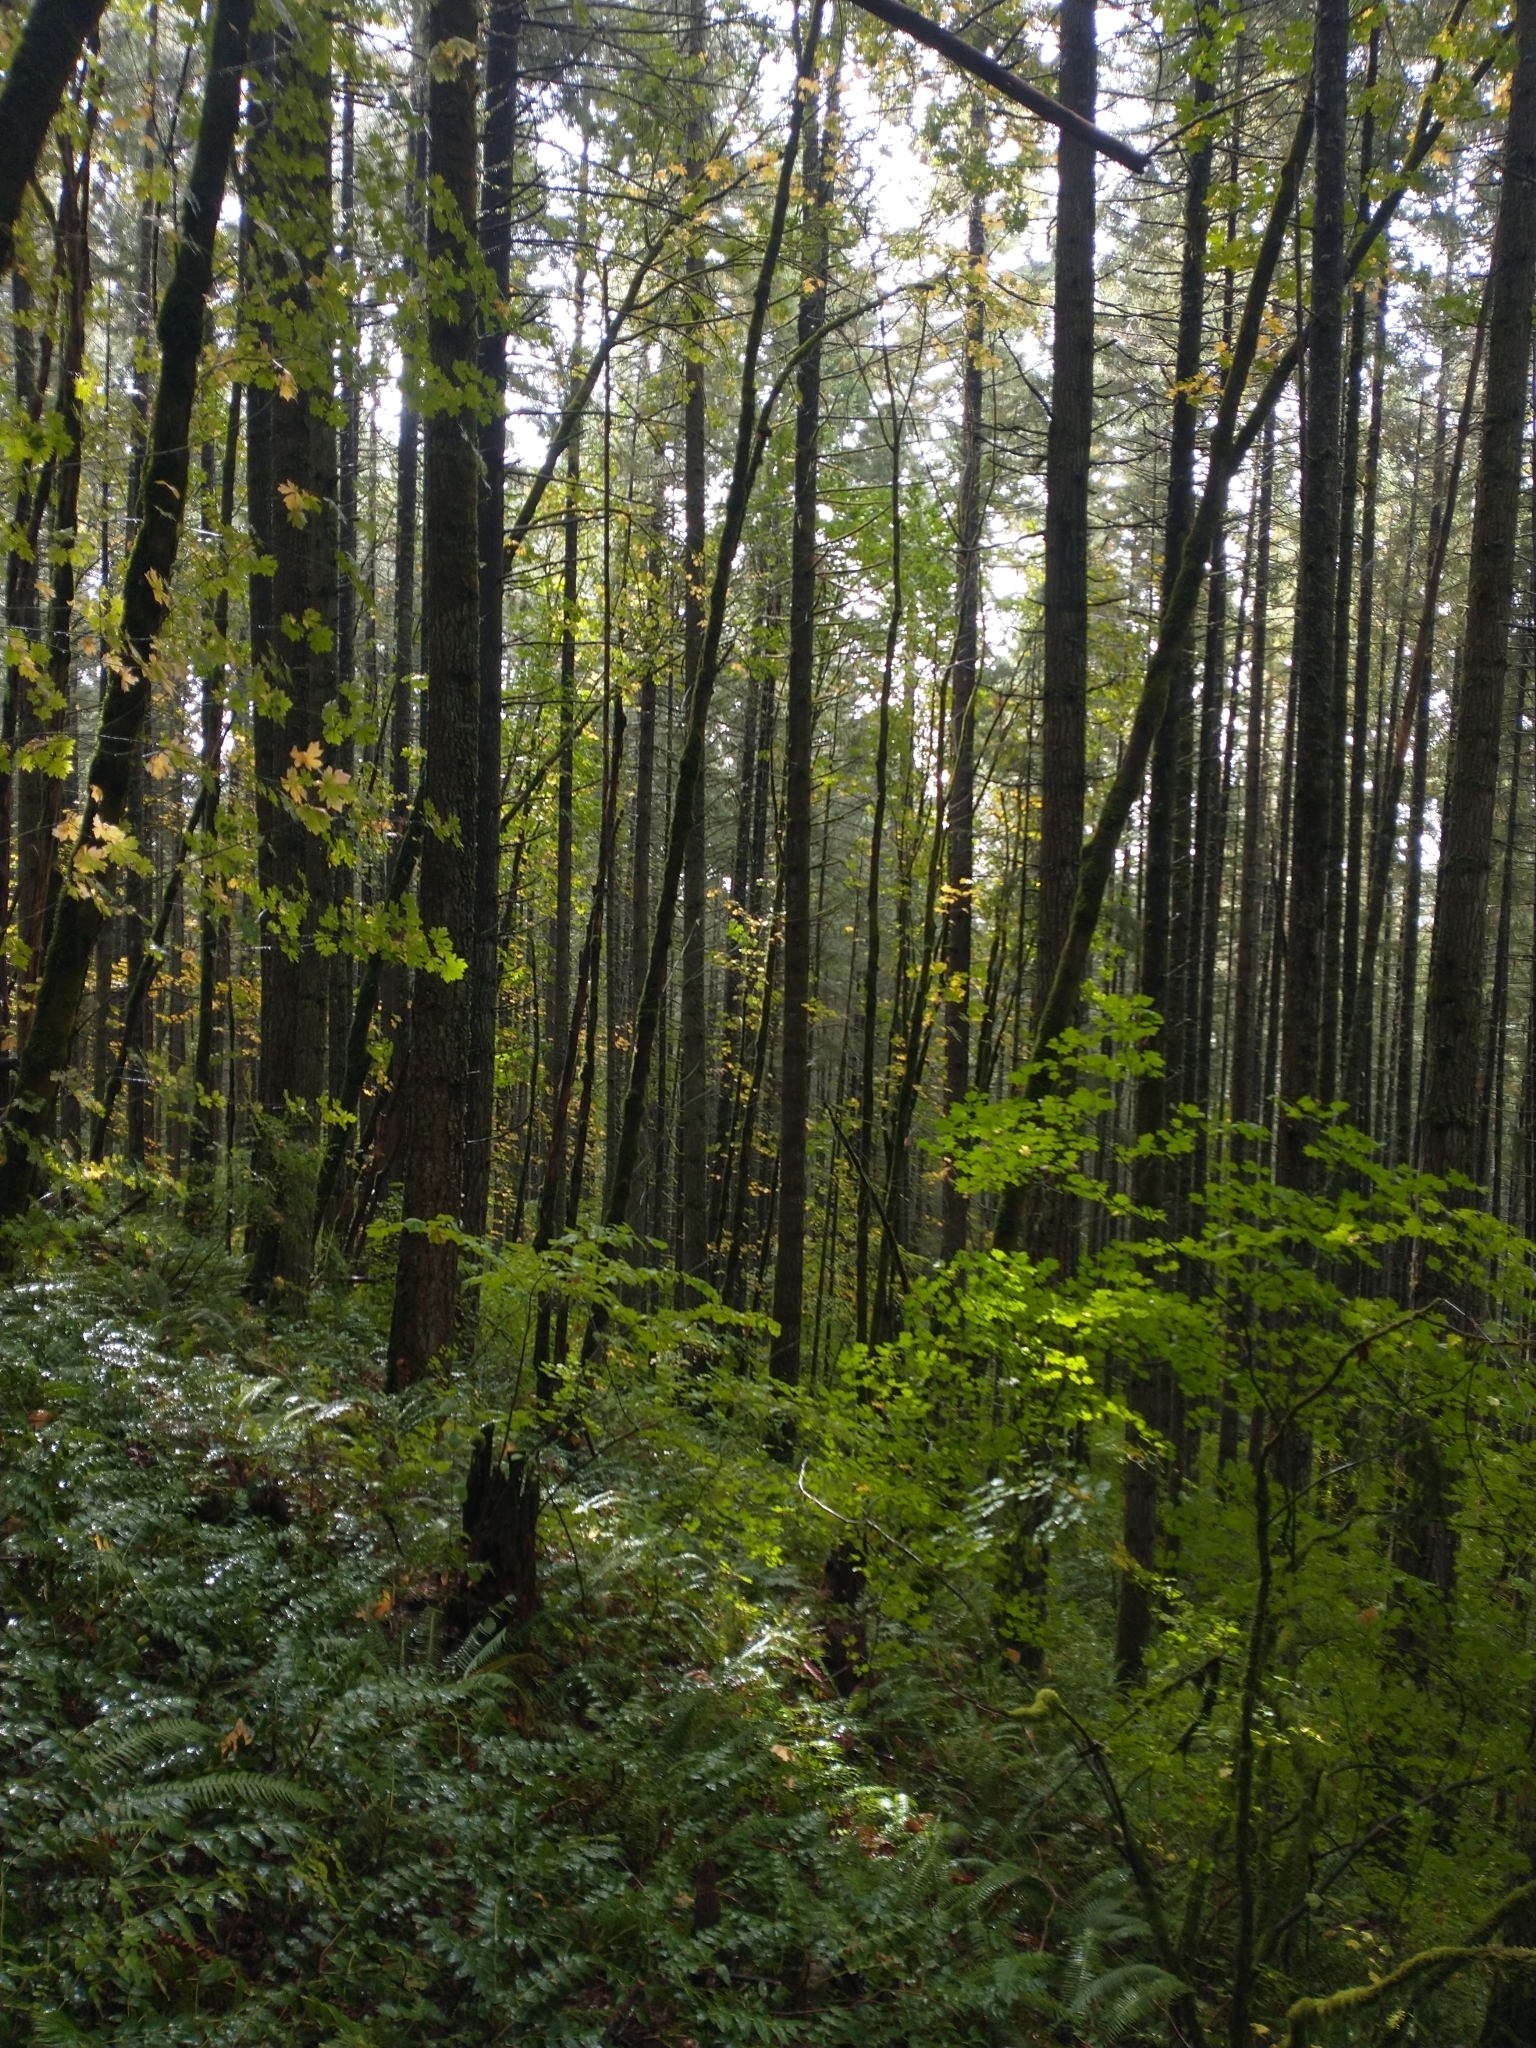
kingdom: Plantae
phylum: Tracheophyta
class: Magnoliopsida
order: Sapindales
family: Sapindaceae
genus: Acer
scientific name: Acer circinatum
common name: Vine maple
